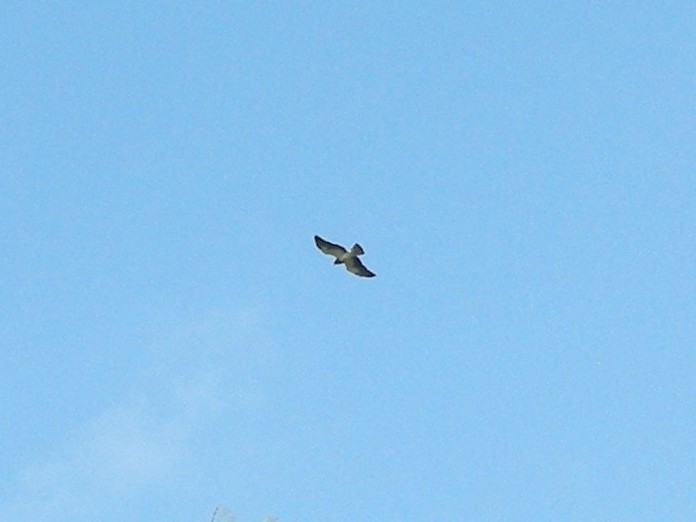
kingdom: Animalia
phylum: Chordata
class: Aves
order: Accipitriformes
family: Accipitridae
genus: Buteo
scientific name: Buteo albicaudatus
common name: White-tailed hawk
